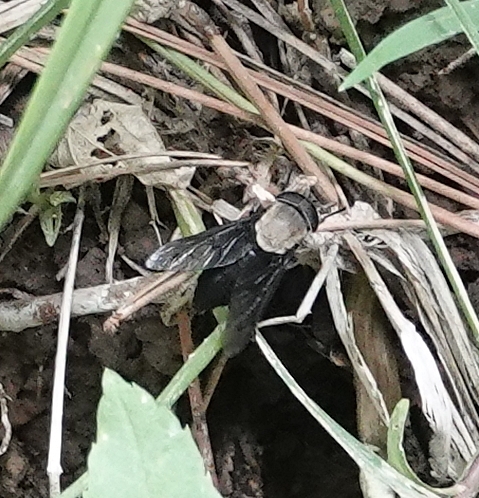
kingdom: Animalia
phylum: Arthropoda
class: Insecta
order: Diptera
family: Tabanidae
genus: Tabanus
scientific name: Tabanus punctifer
